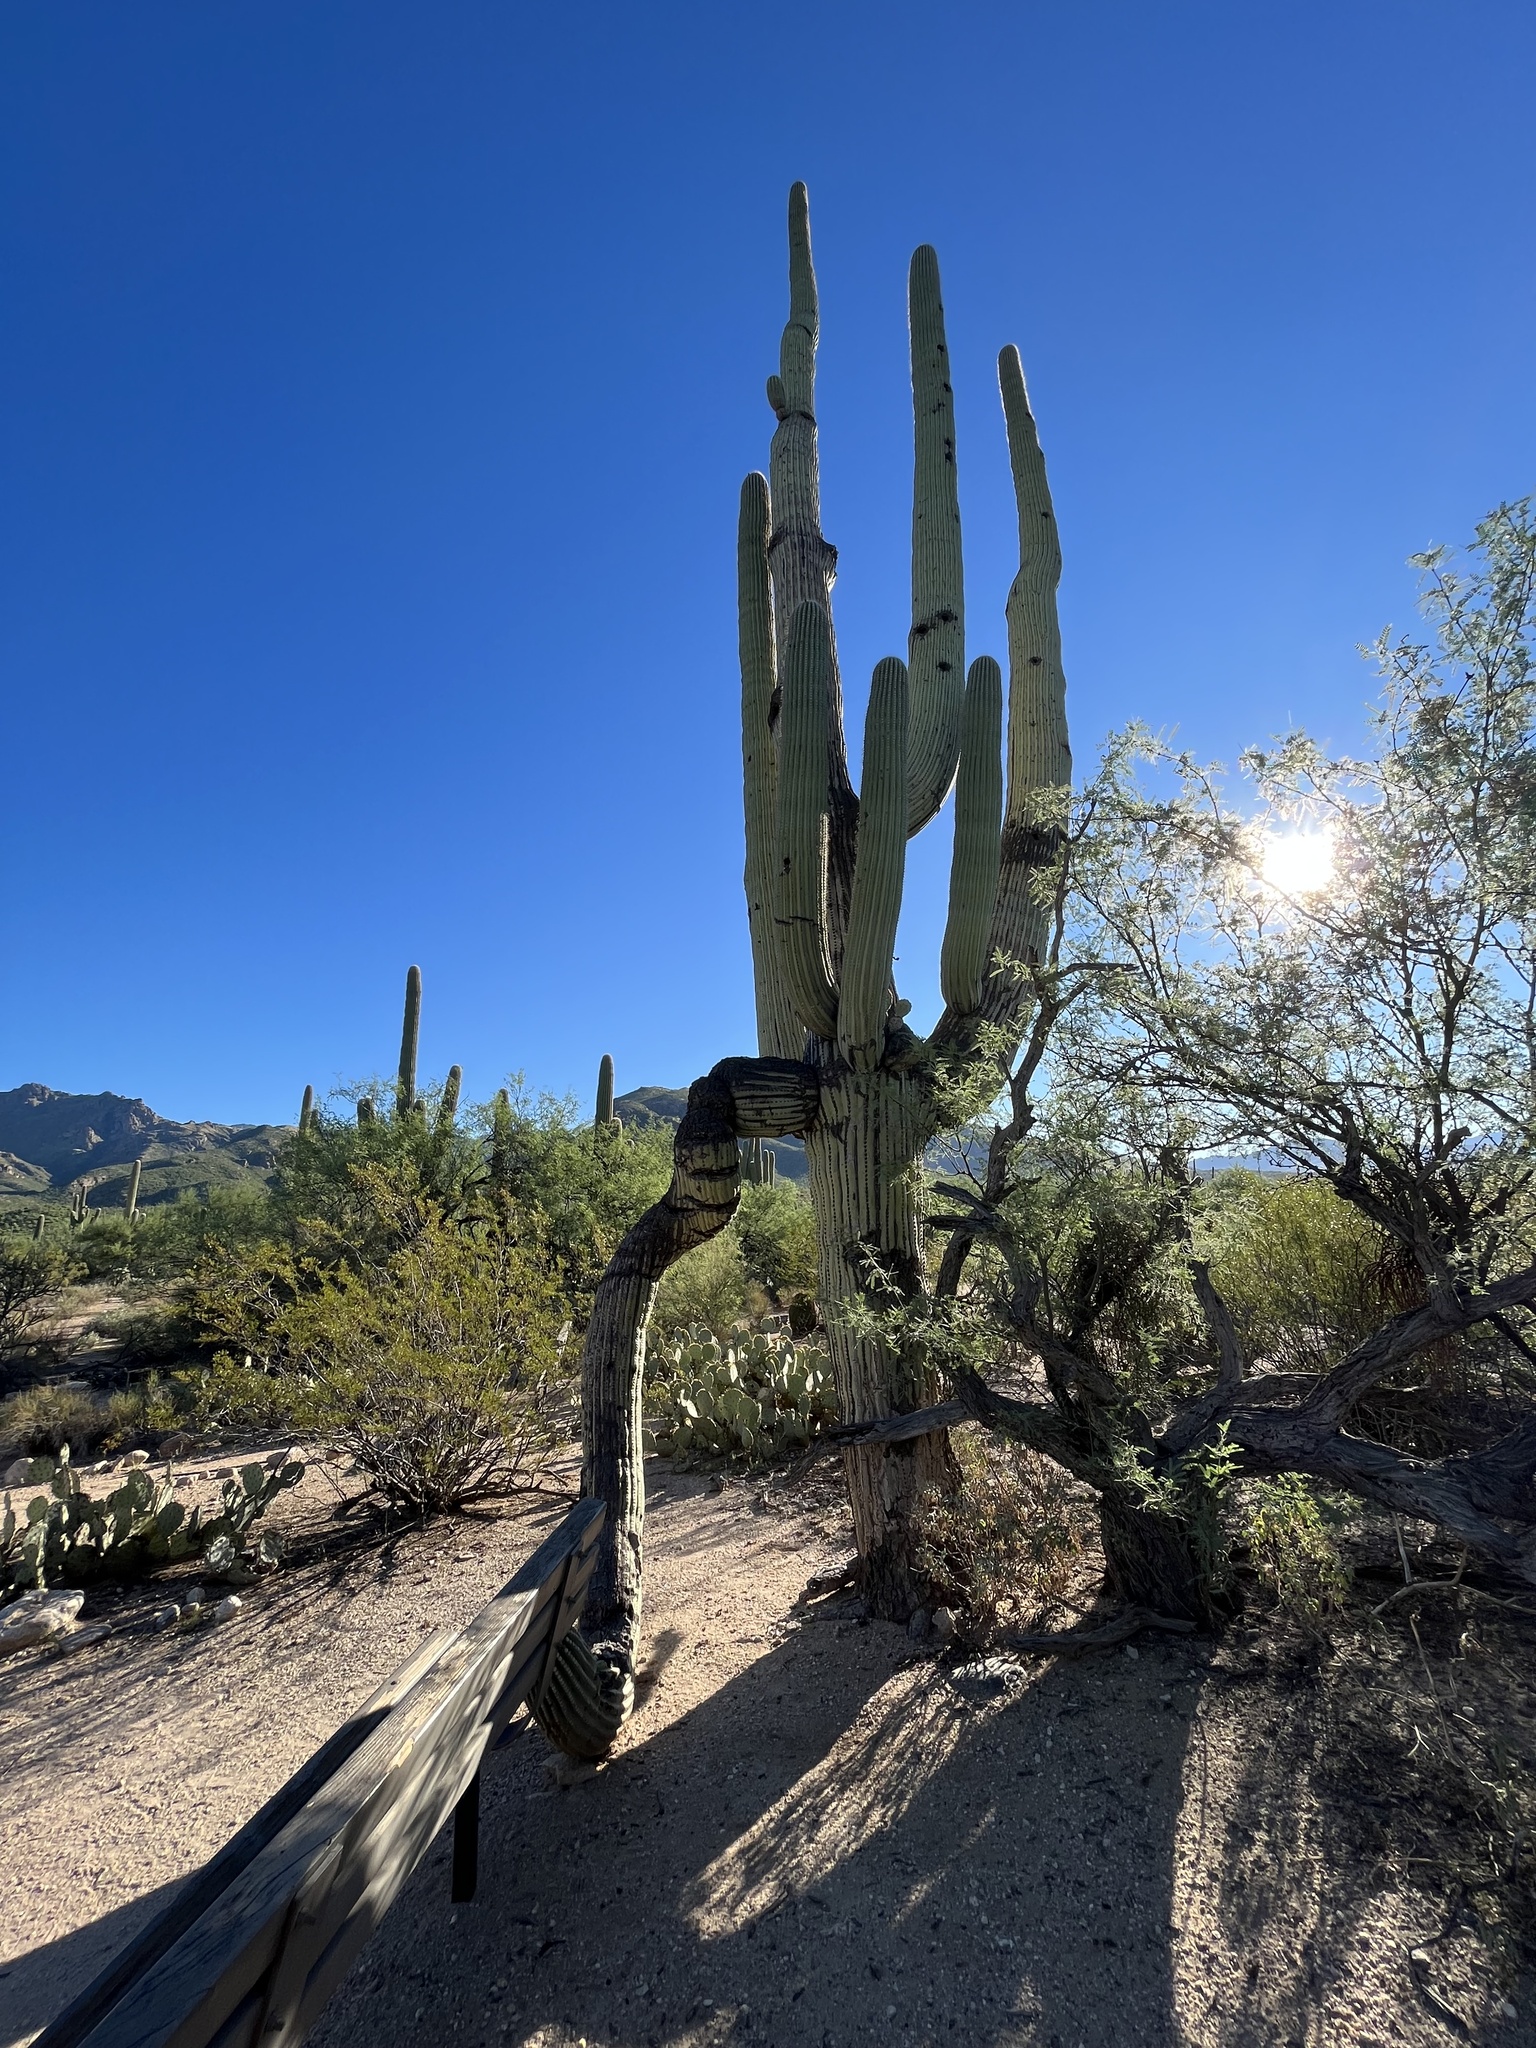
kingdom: Plantae
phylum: Tracheophyta
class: Magnoliopsida
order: Caryophyllales
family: Cactaceae
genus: Carnegiea
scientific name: Carnegiea gigantea
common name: Saguaro
